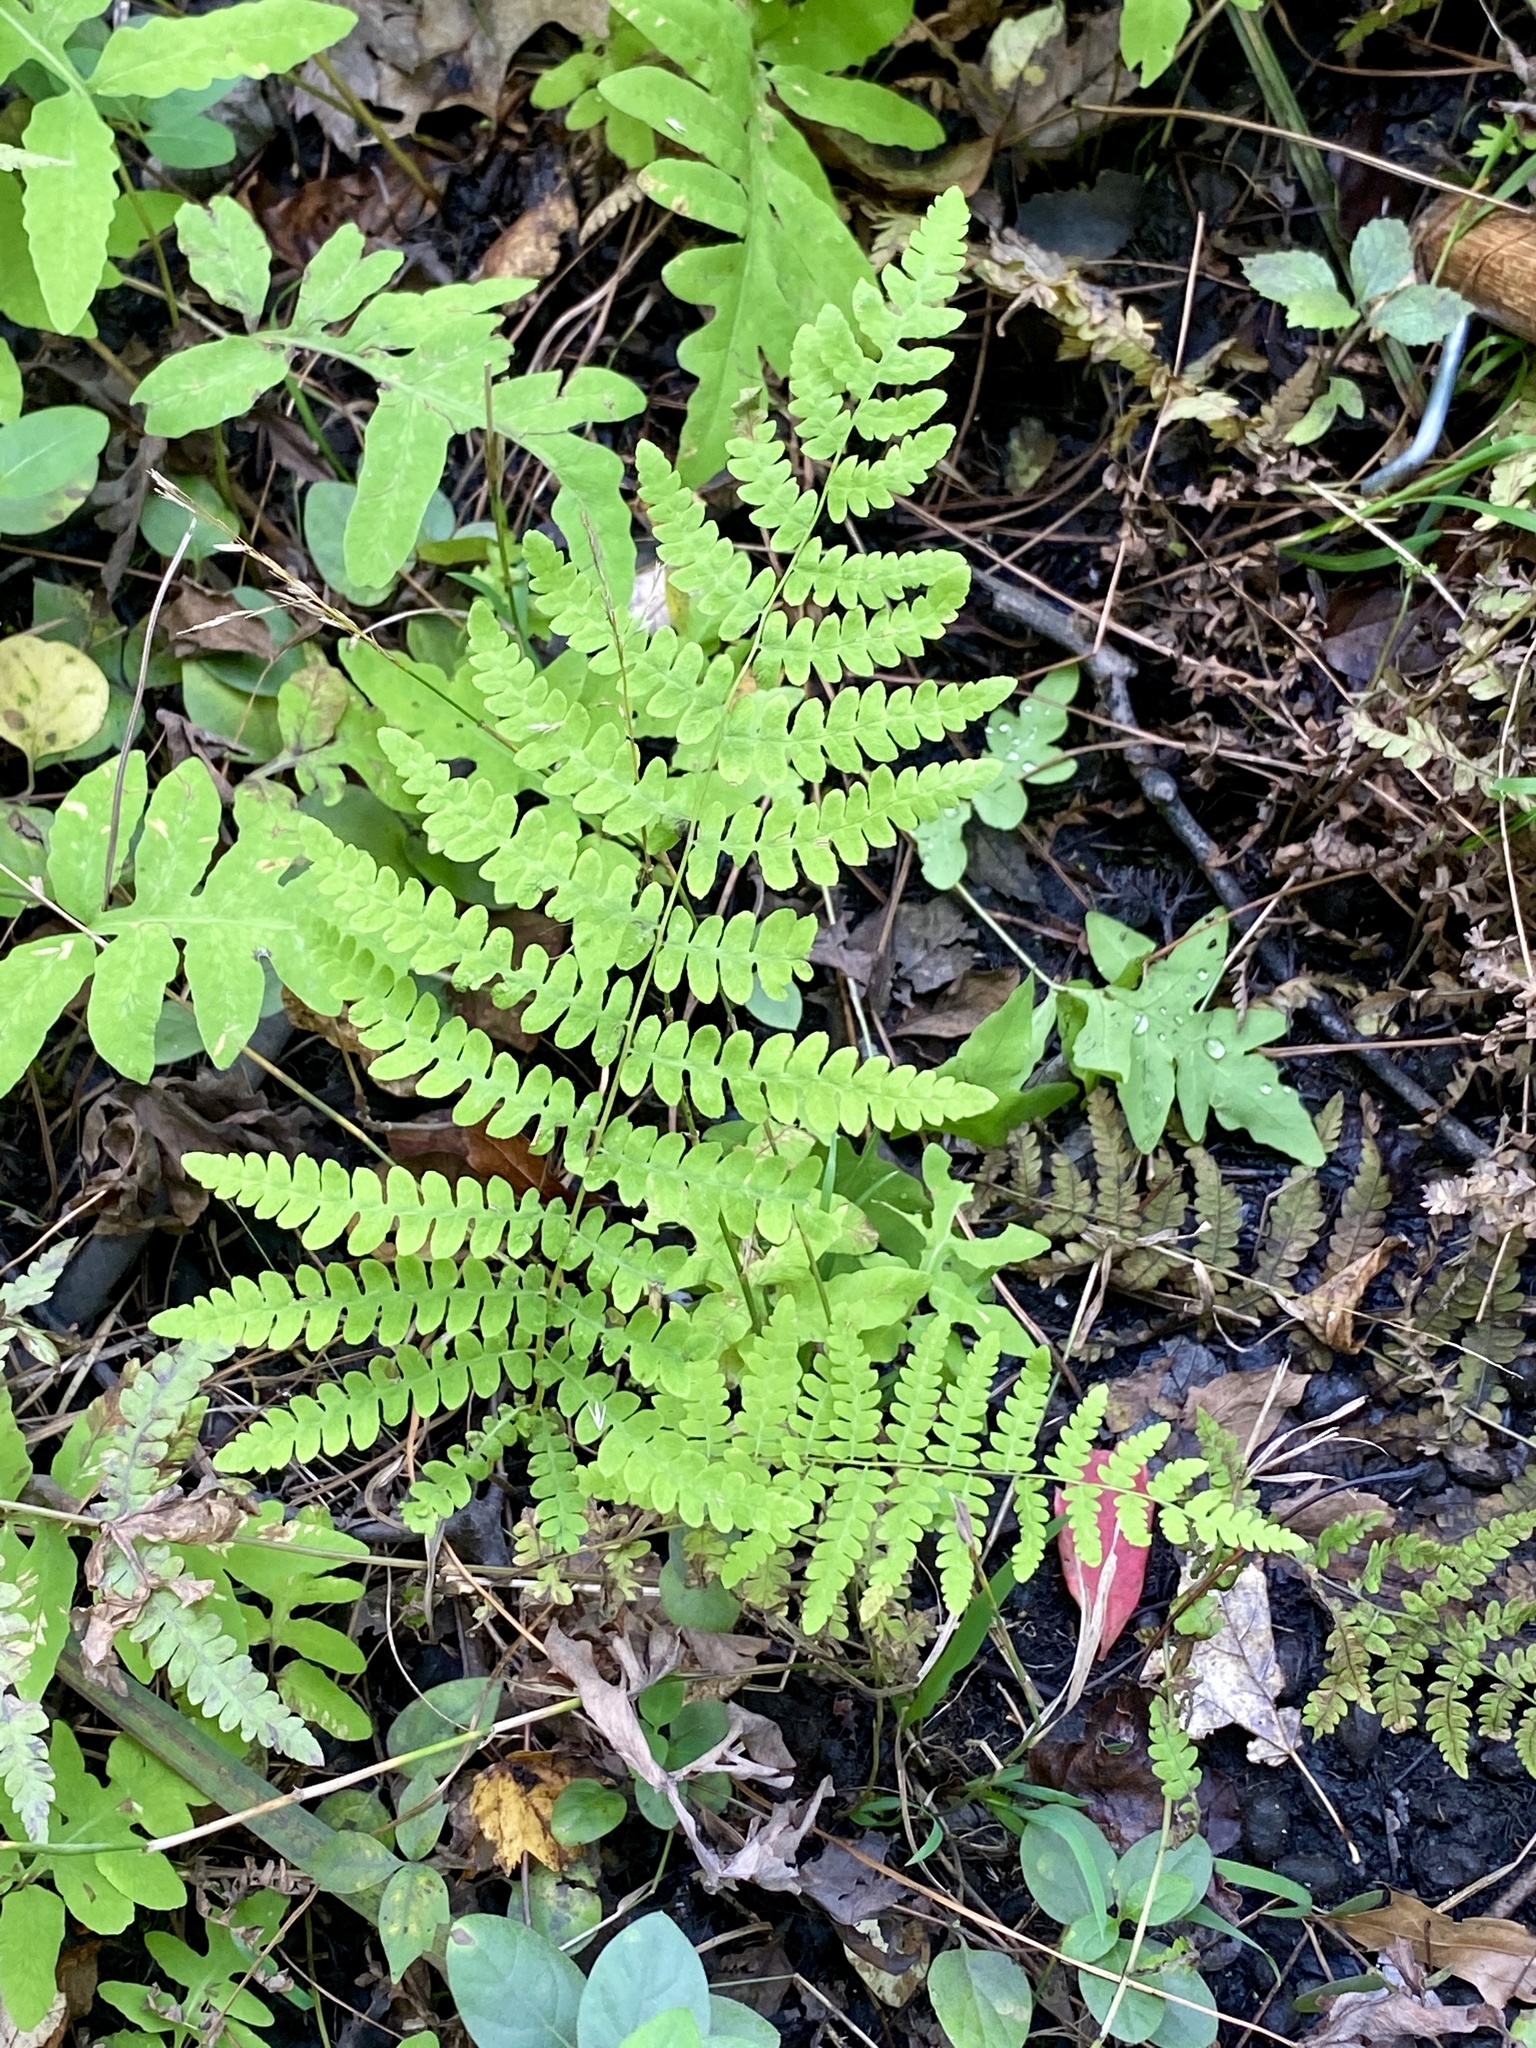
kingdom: Plantae
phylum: Tracheophyta
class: Polypodiopsida
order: Polypodiales
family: Thelypteridaceae
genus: Thelypteris
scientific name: Thelypteris palustris
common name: Marsh fern
